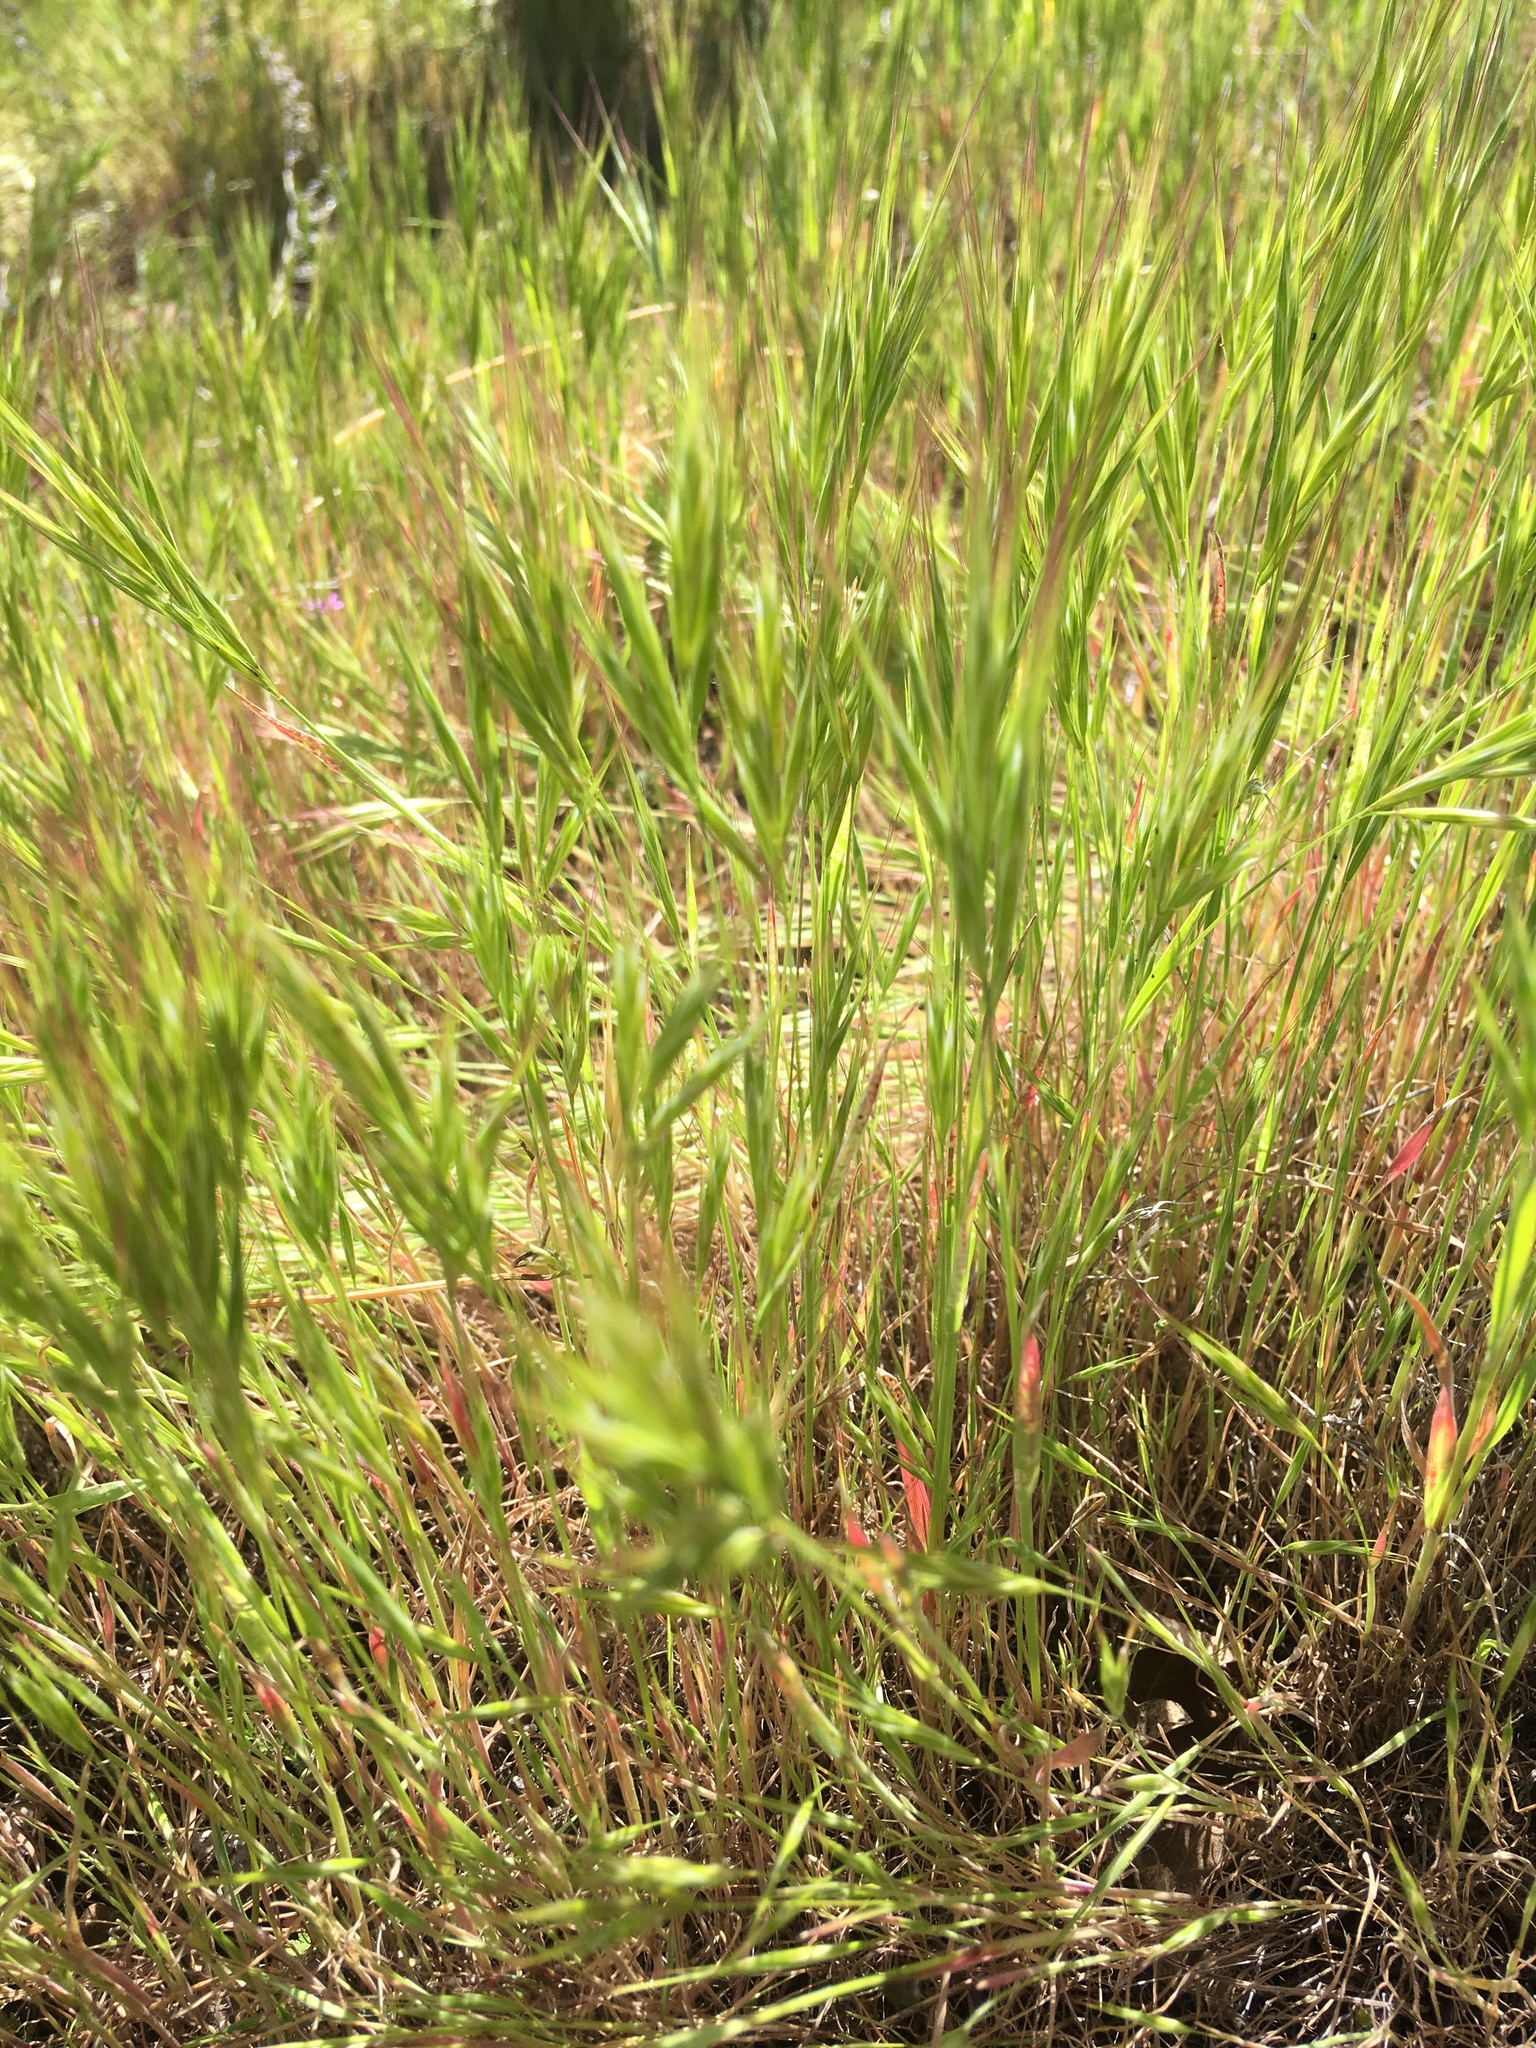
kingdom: Plantae
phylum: Tracheophyta
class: Liliopsida
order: Poales
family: Poaceae
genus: Bromus
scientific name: Bromus rubens
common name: Red brome
